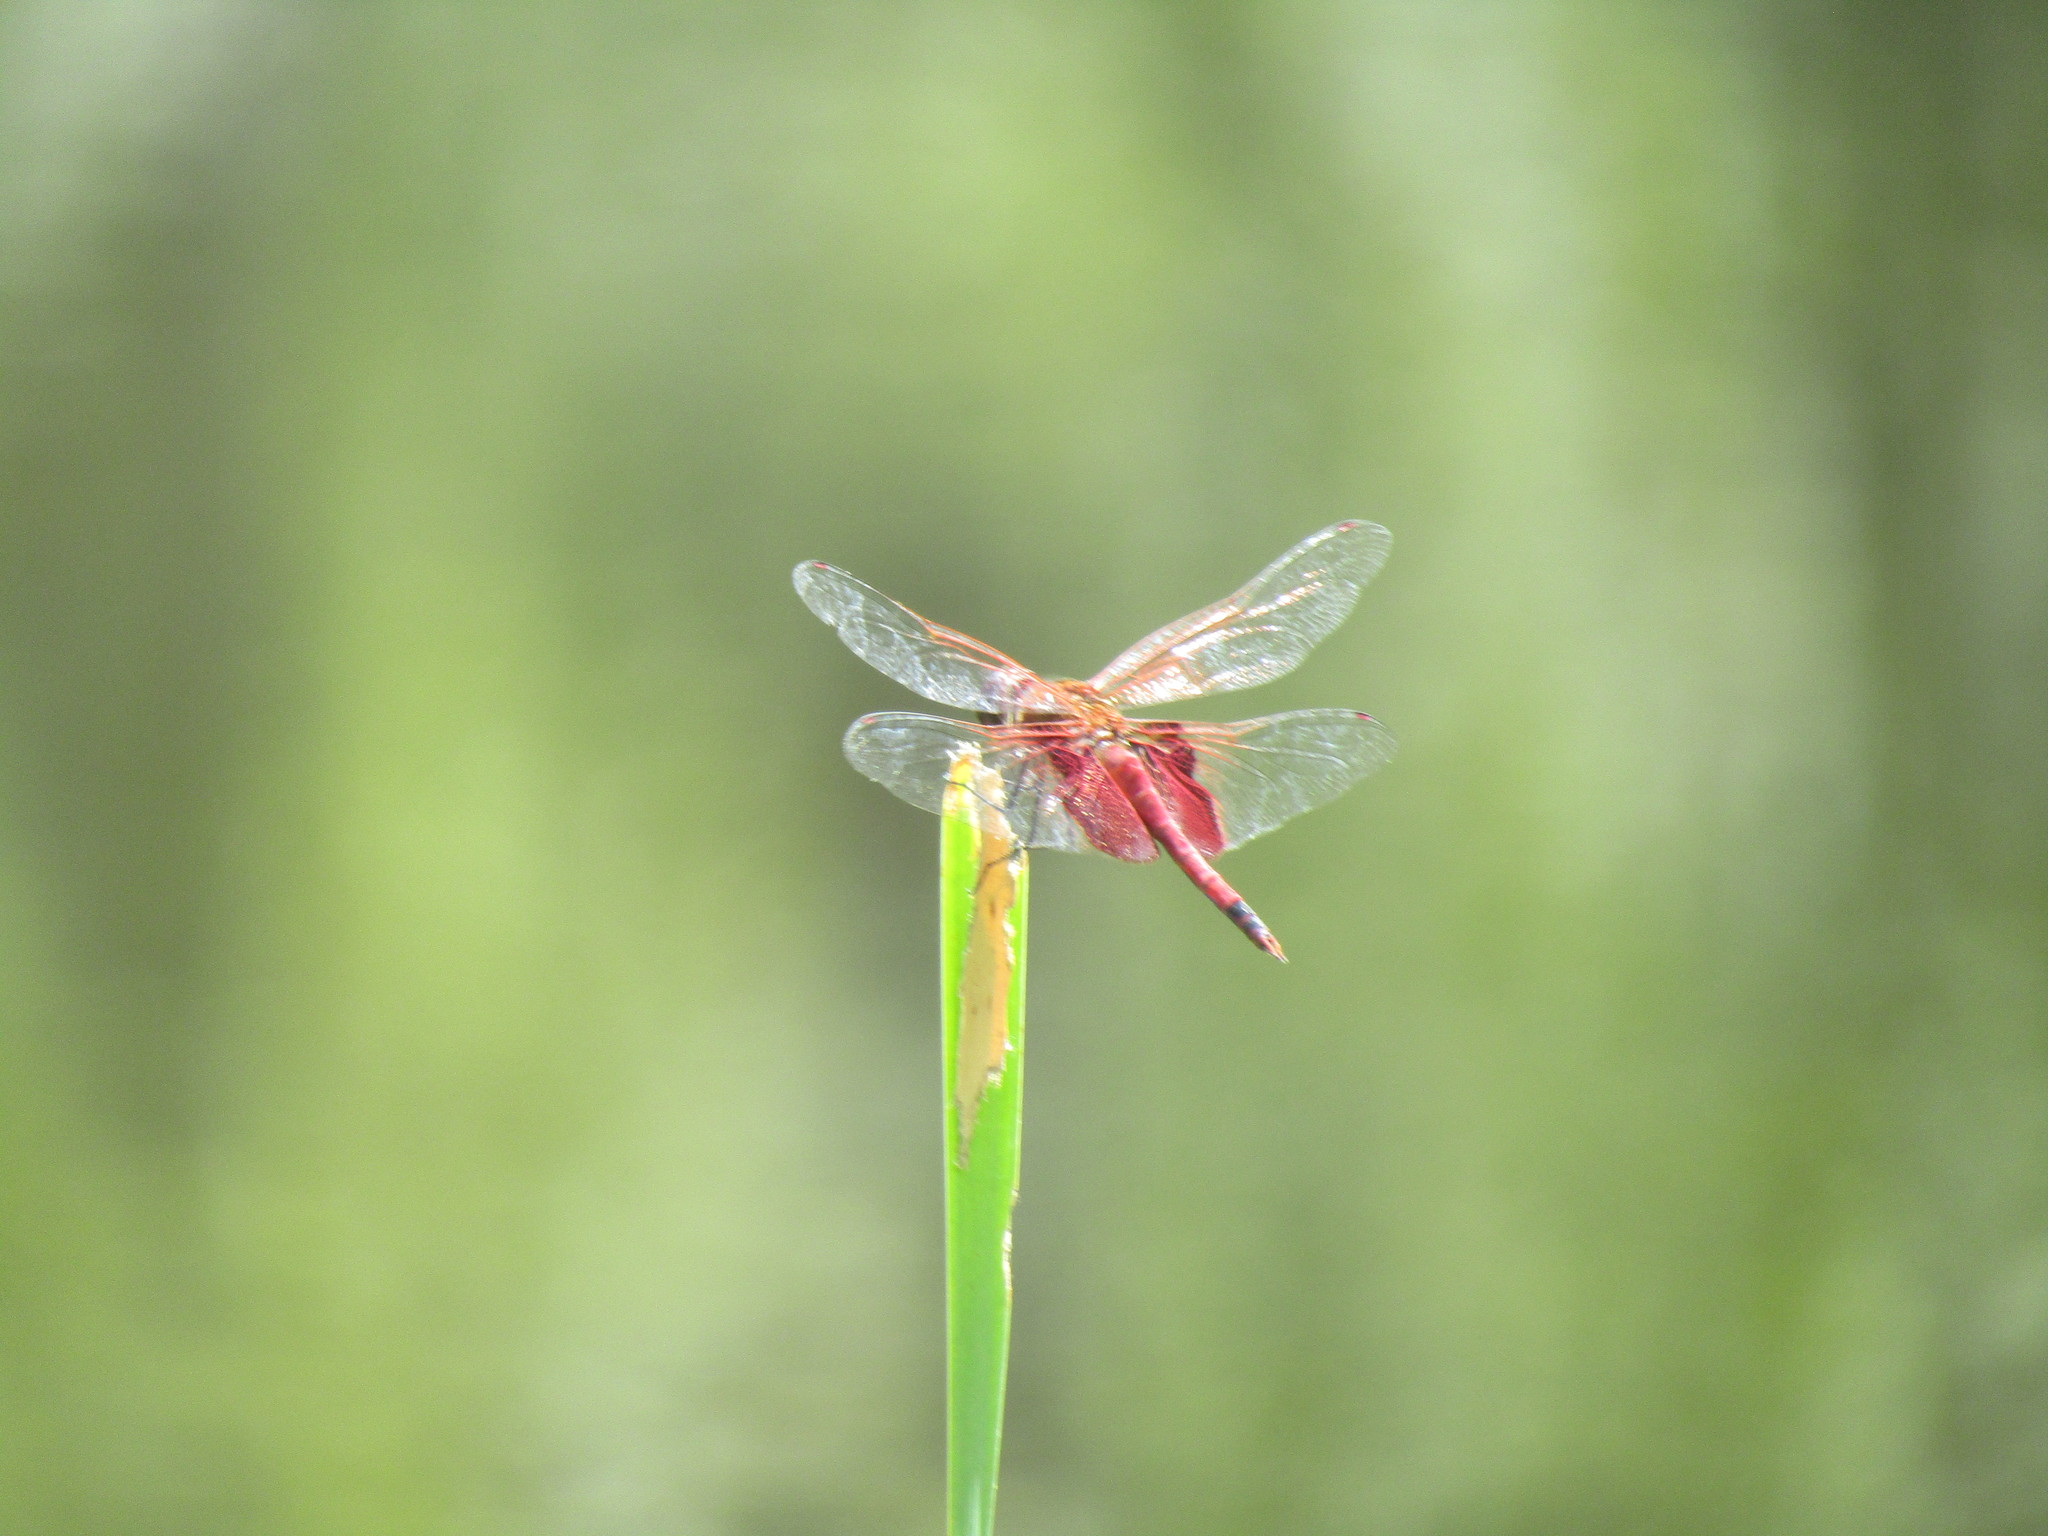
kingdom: Animalia
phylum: Arthropoda
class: Insecta
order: Odonata
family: Libellulidae
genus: Tramea
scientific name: Tramea carolina
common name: Carolina saddlebags
